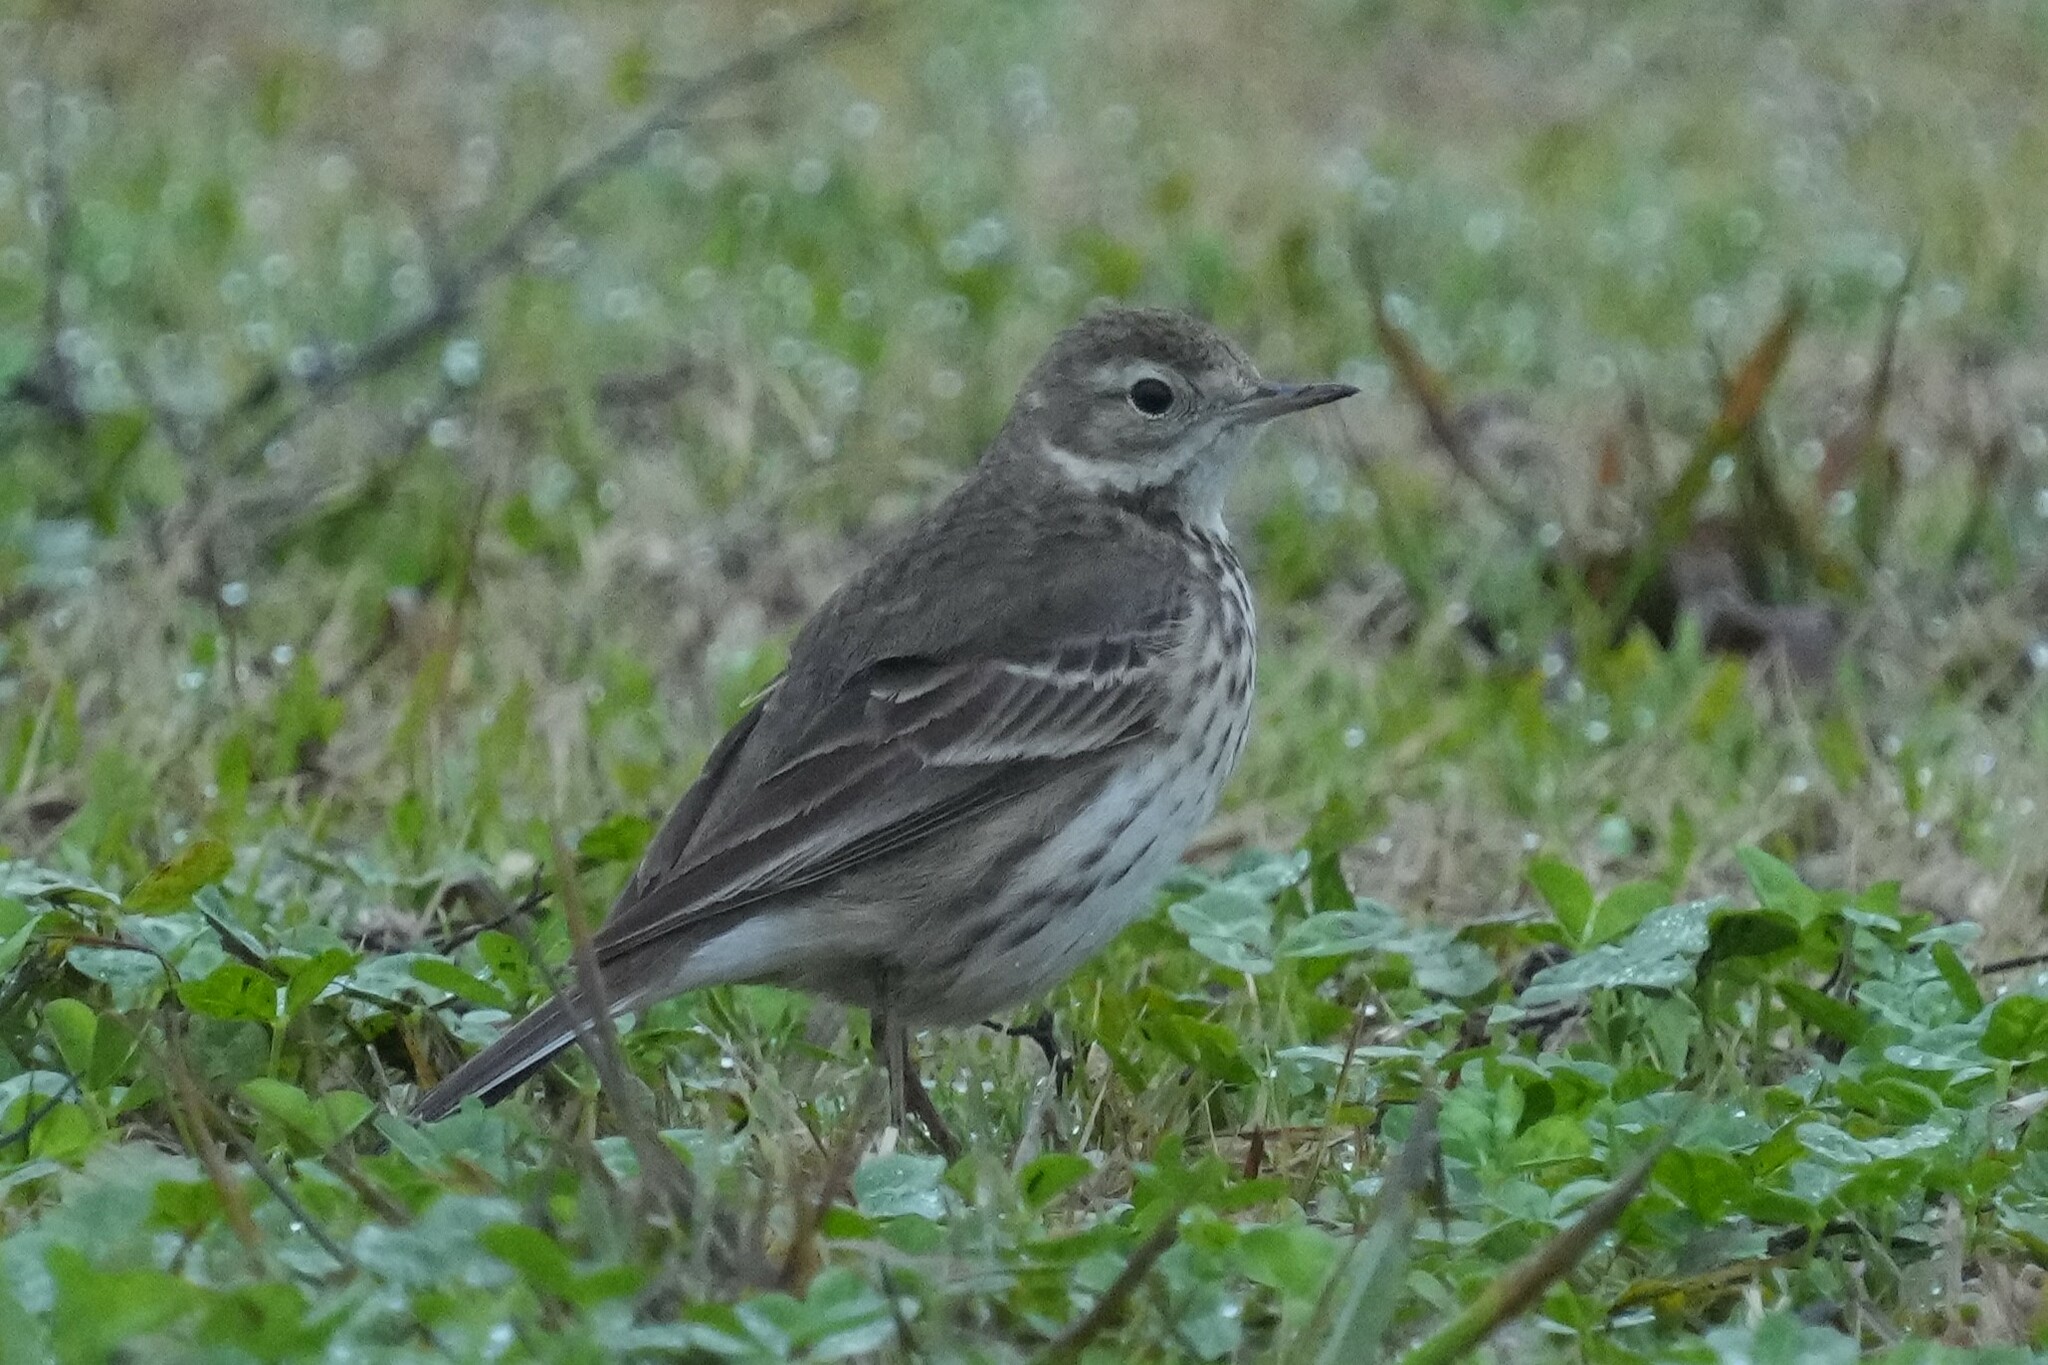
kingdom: Animalia
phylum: Chordata
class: Aves
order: Passeriformes
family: Motacillidae
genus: Anthus
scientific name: Anthus rubescens
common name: Buff-bellied pipit
